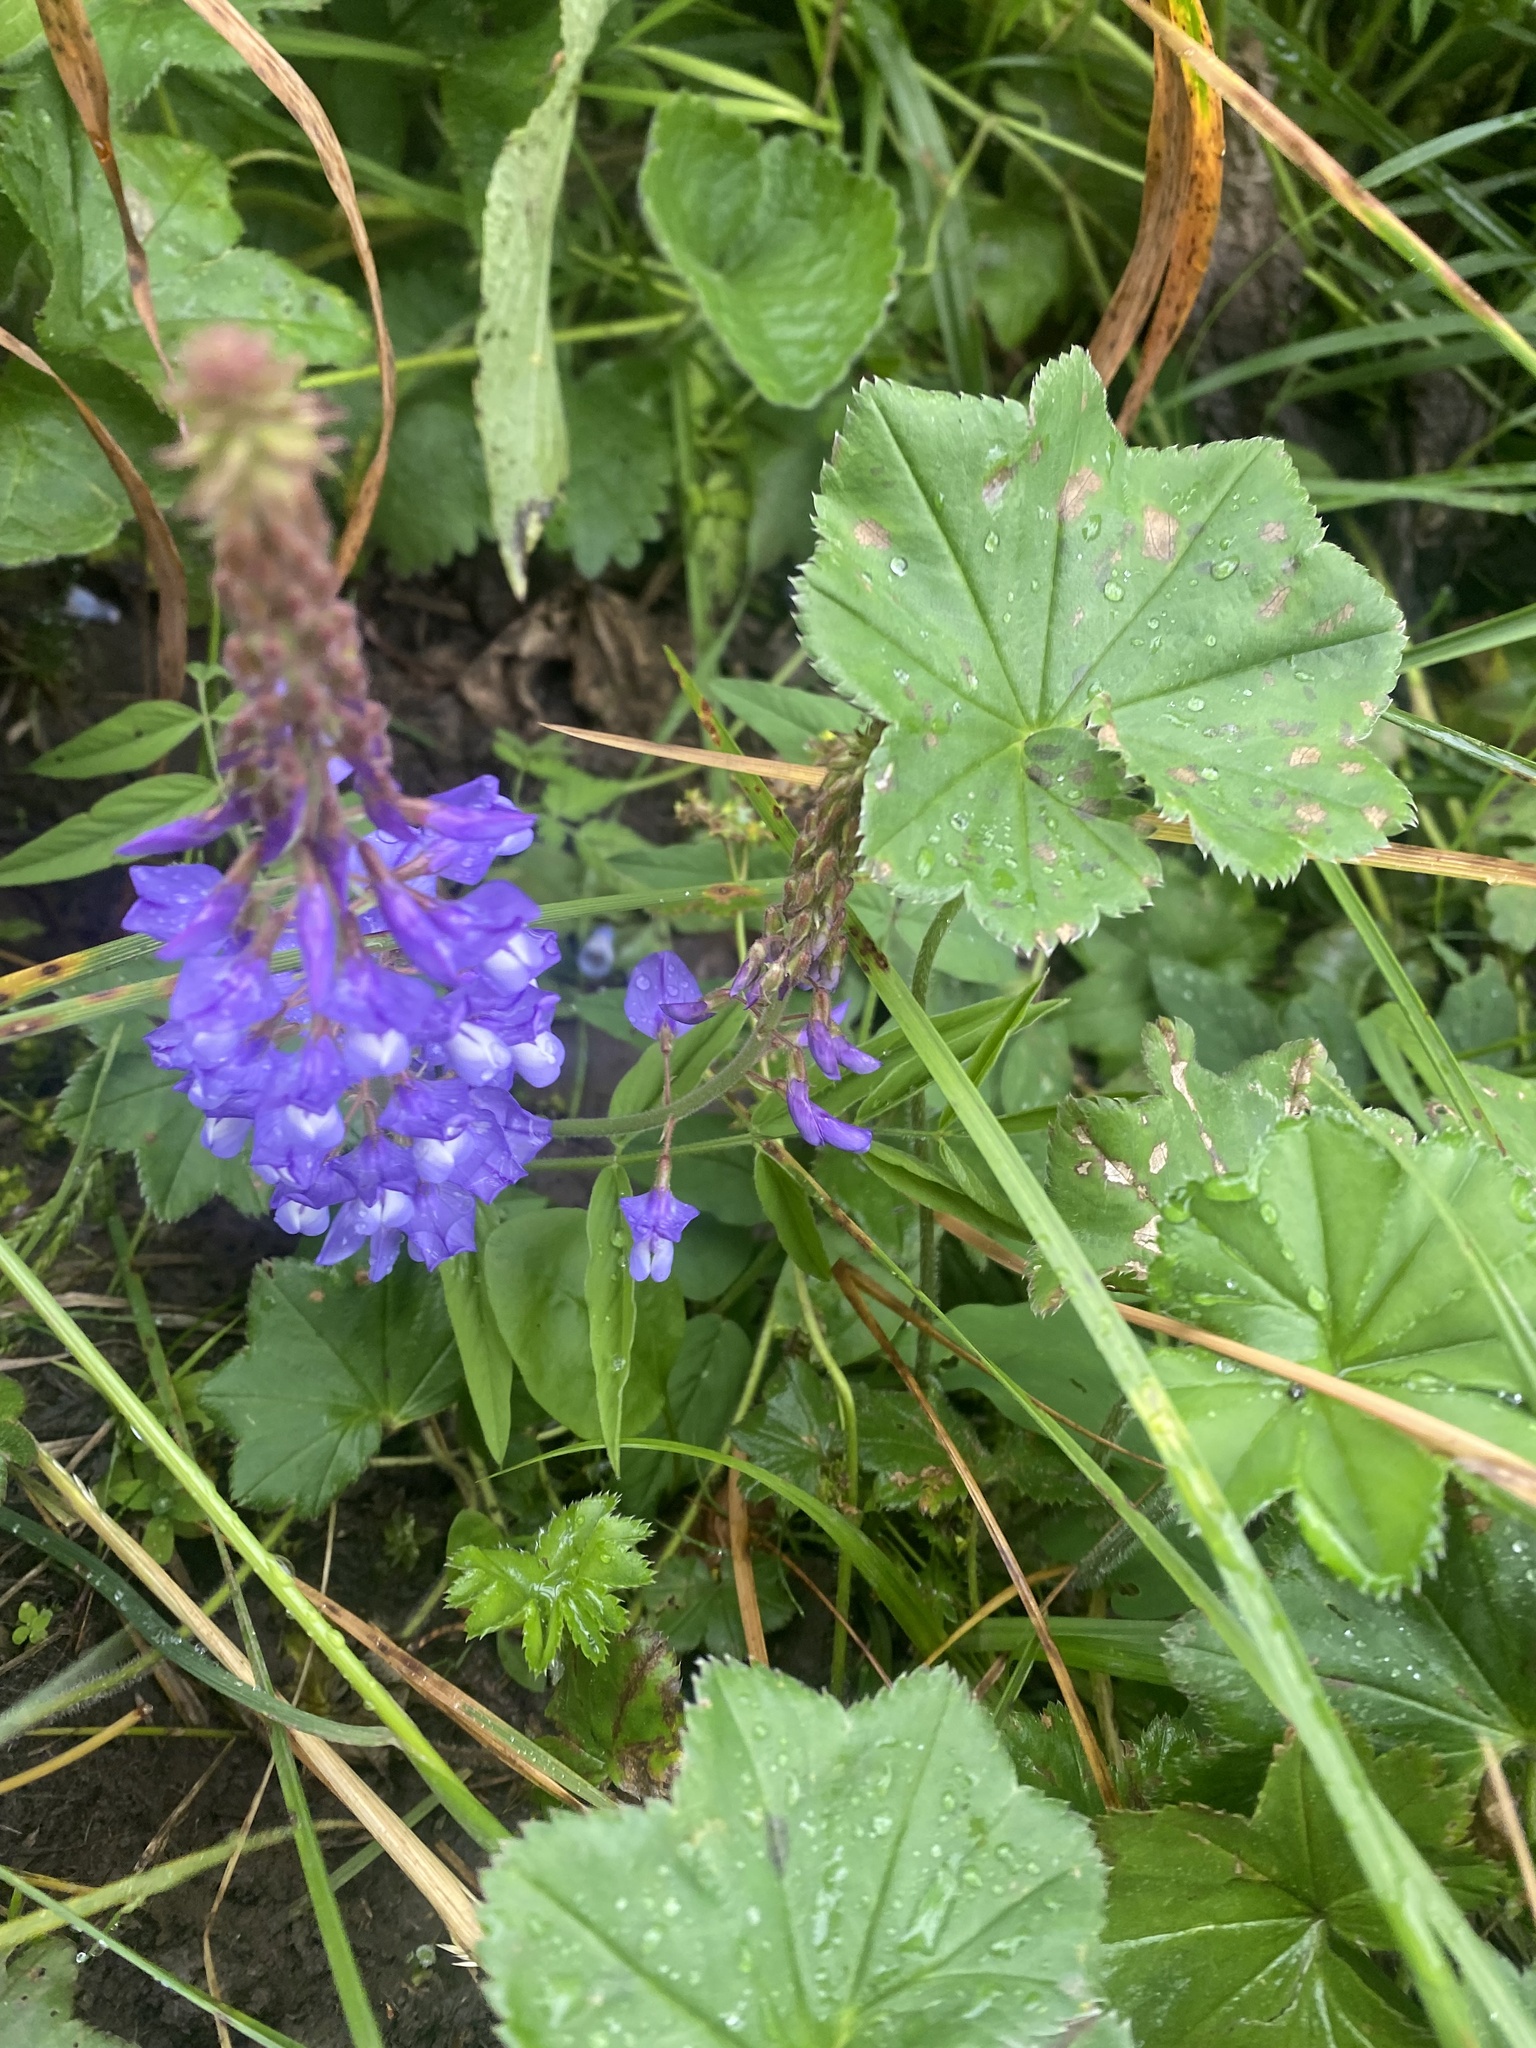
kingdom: Plantae
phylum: Tracheophyta
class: Magnoliopsida
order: Fabales
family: Fabaceae
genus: Galega
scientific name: Galega orientalis
